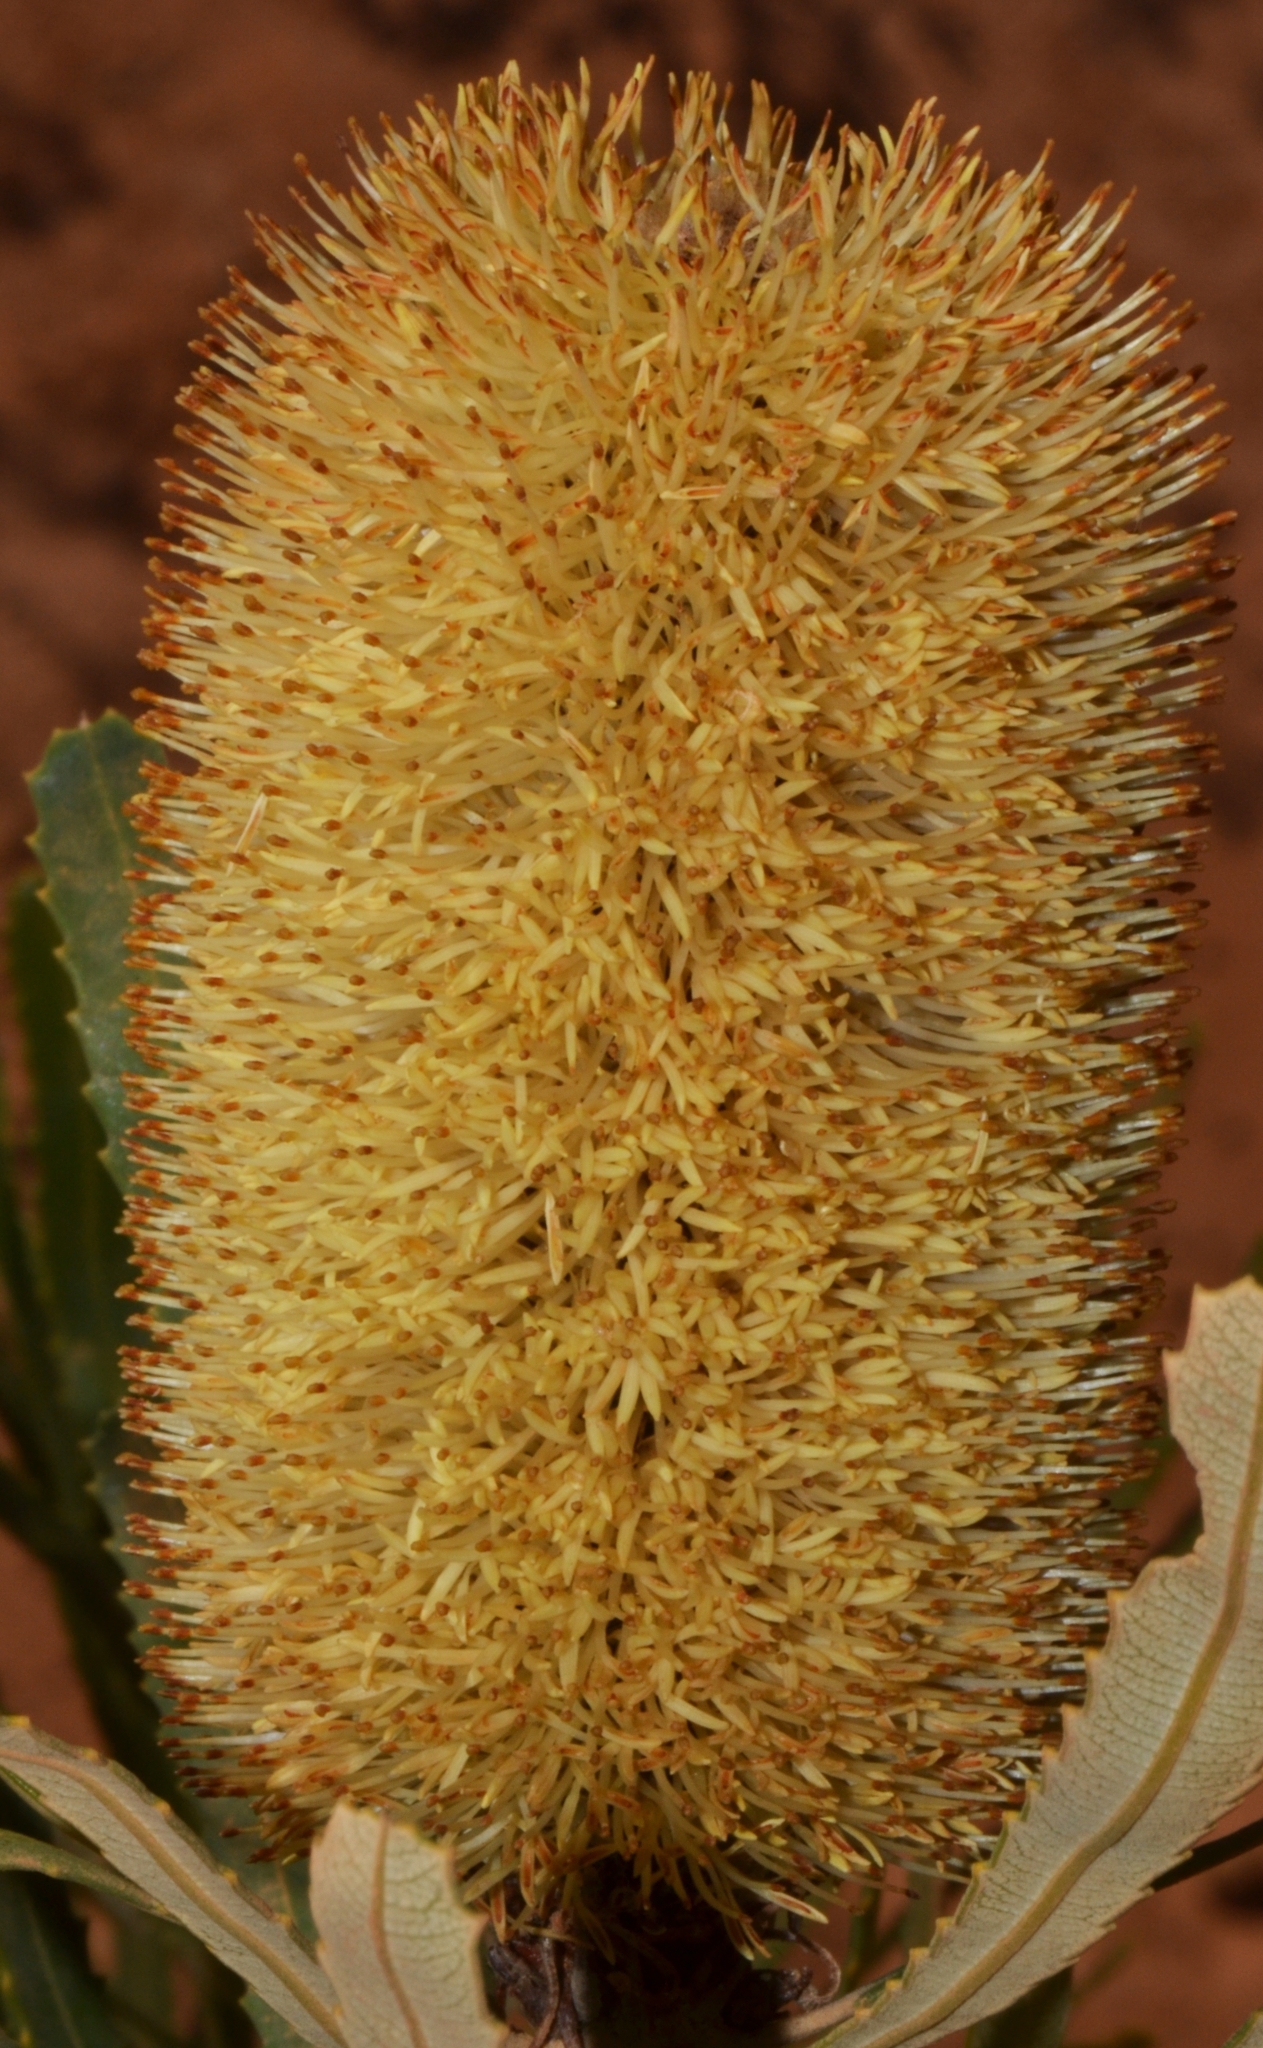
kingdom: Plantae
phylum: Tracheophyta
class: Magnoliopsida
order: Proteales
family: Proteaceae
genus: Banksia
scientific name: Banksia attenuata
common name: Coast banksia
